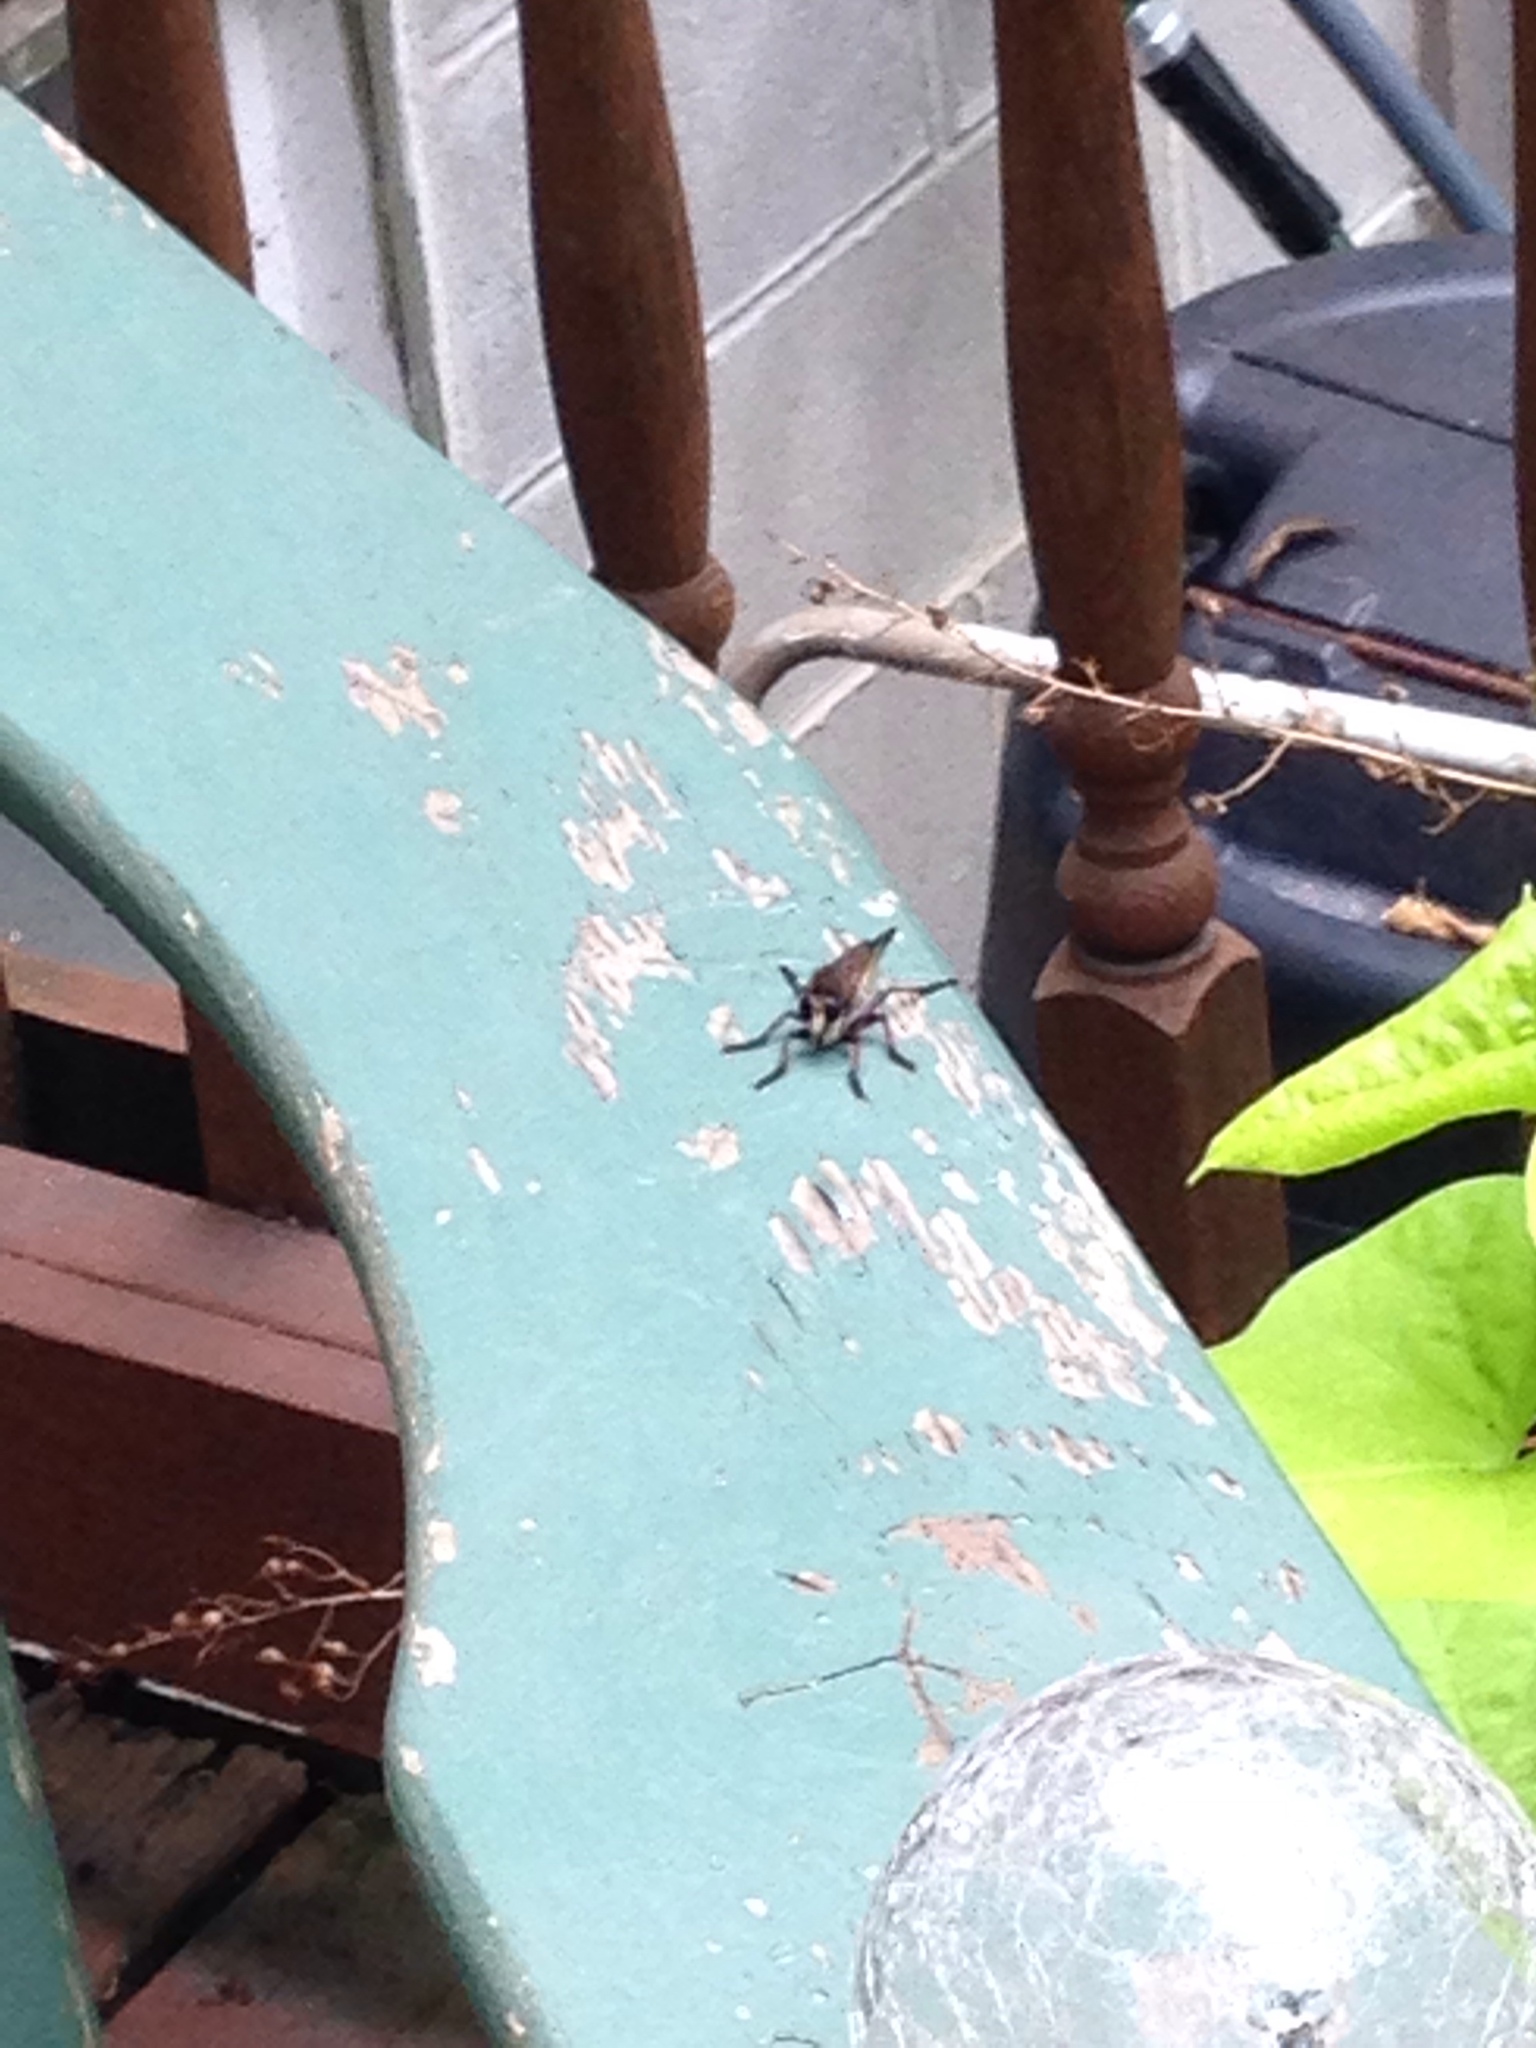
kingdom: Animalia
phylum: Arthropoda
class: Insecta
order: Diptera
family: Asilidae
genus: Promachus
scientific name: Promachus hinei
